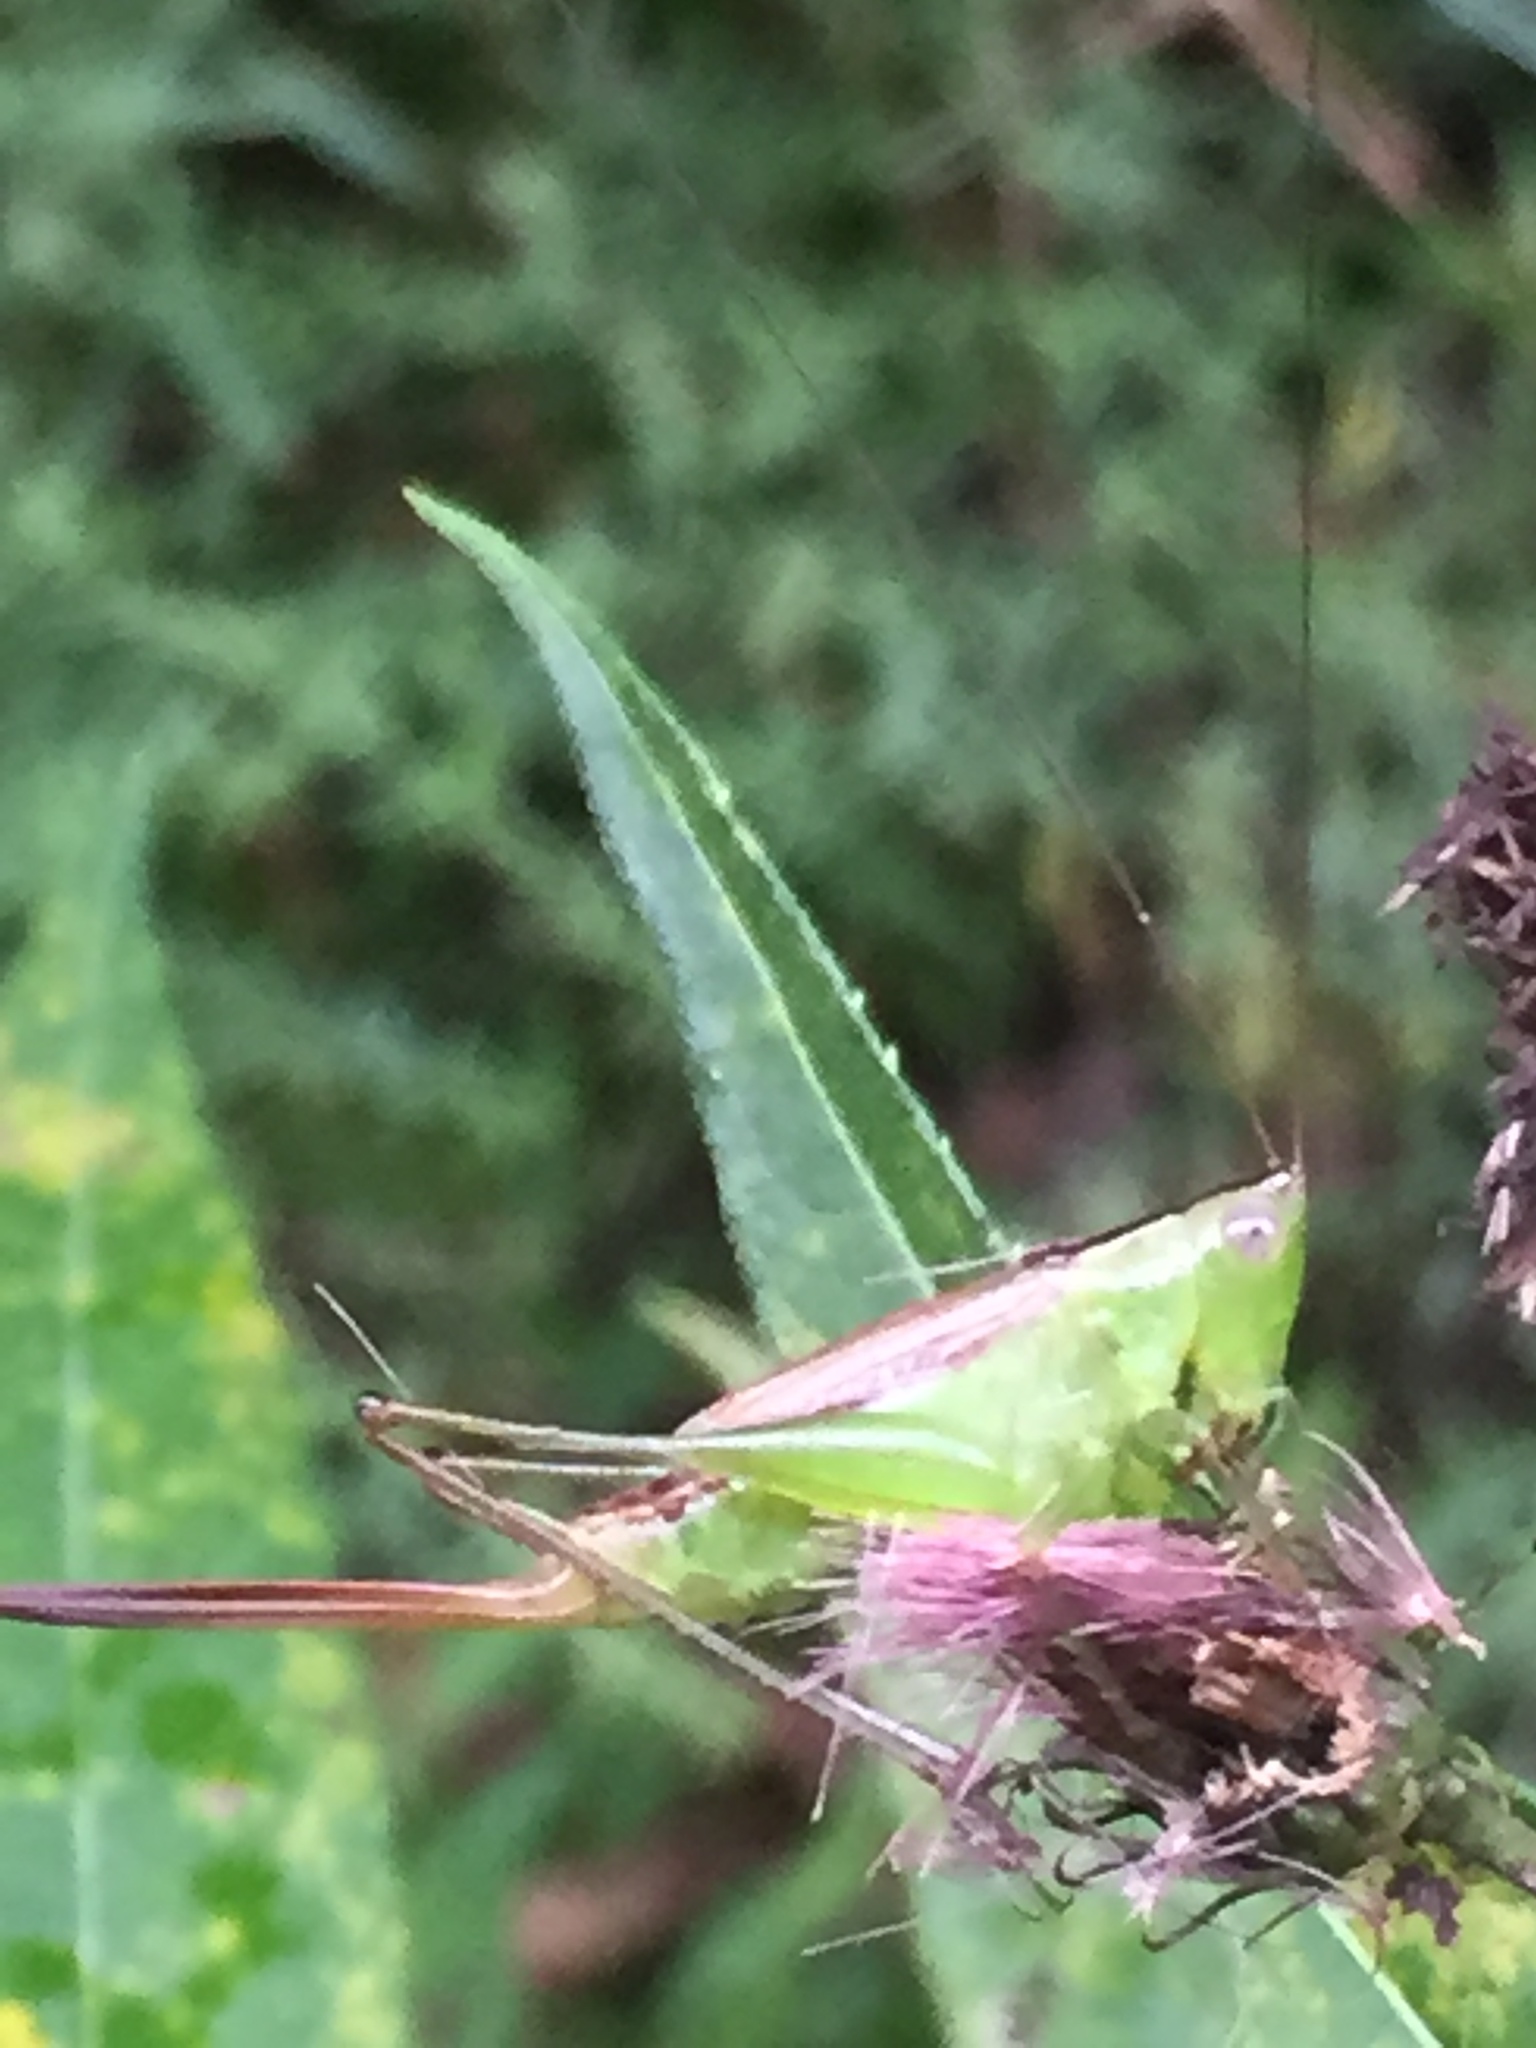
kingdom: Animalia
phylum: Arthropoda
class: Insecta
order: Orthoptera
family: Tettigoniidae
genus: Conocephalus
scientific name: Conocephalus brevipennis
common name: Short-winged meadow katydid
